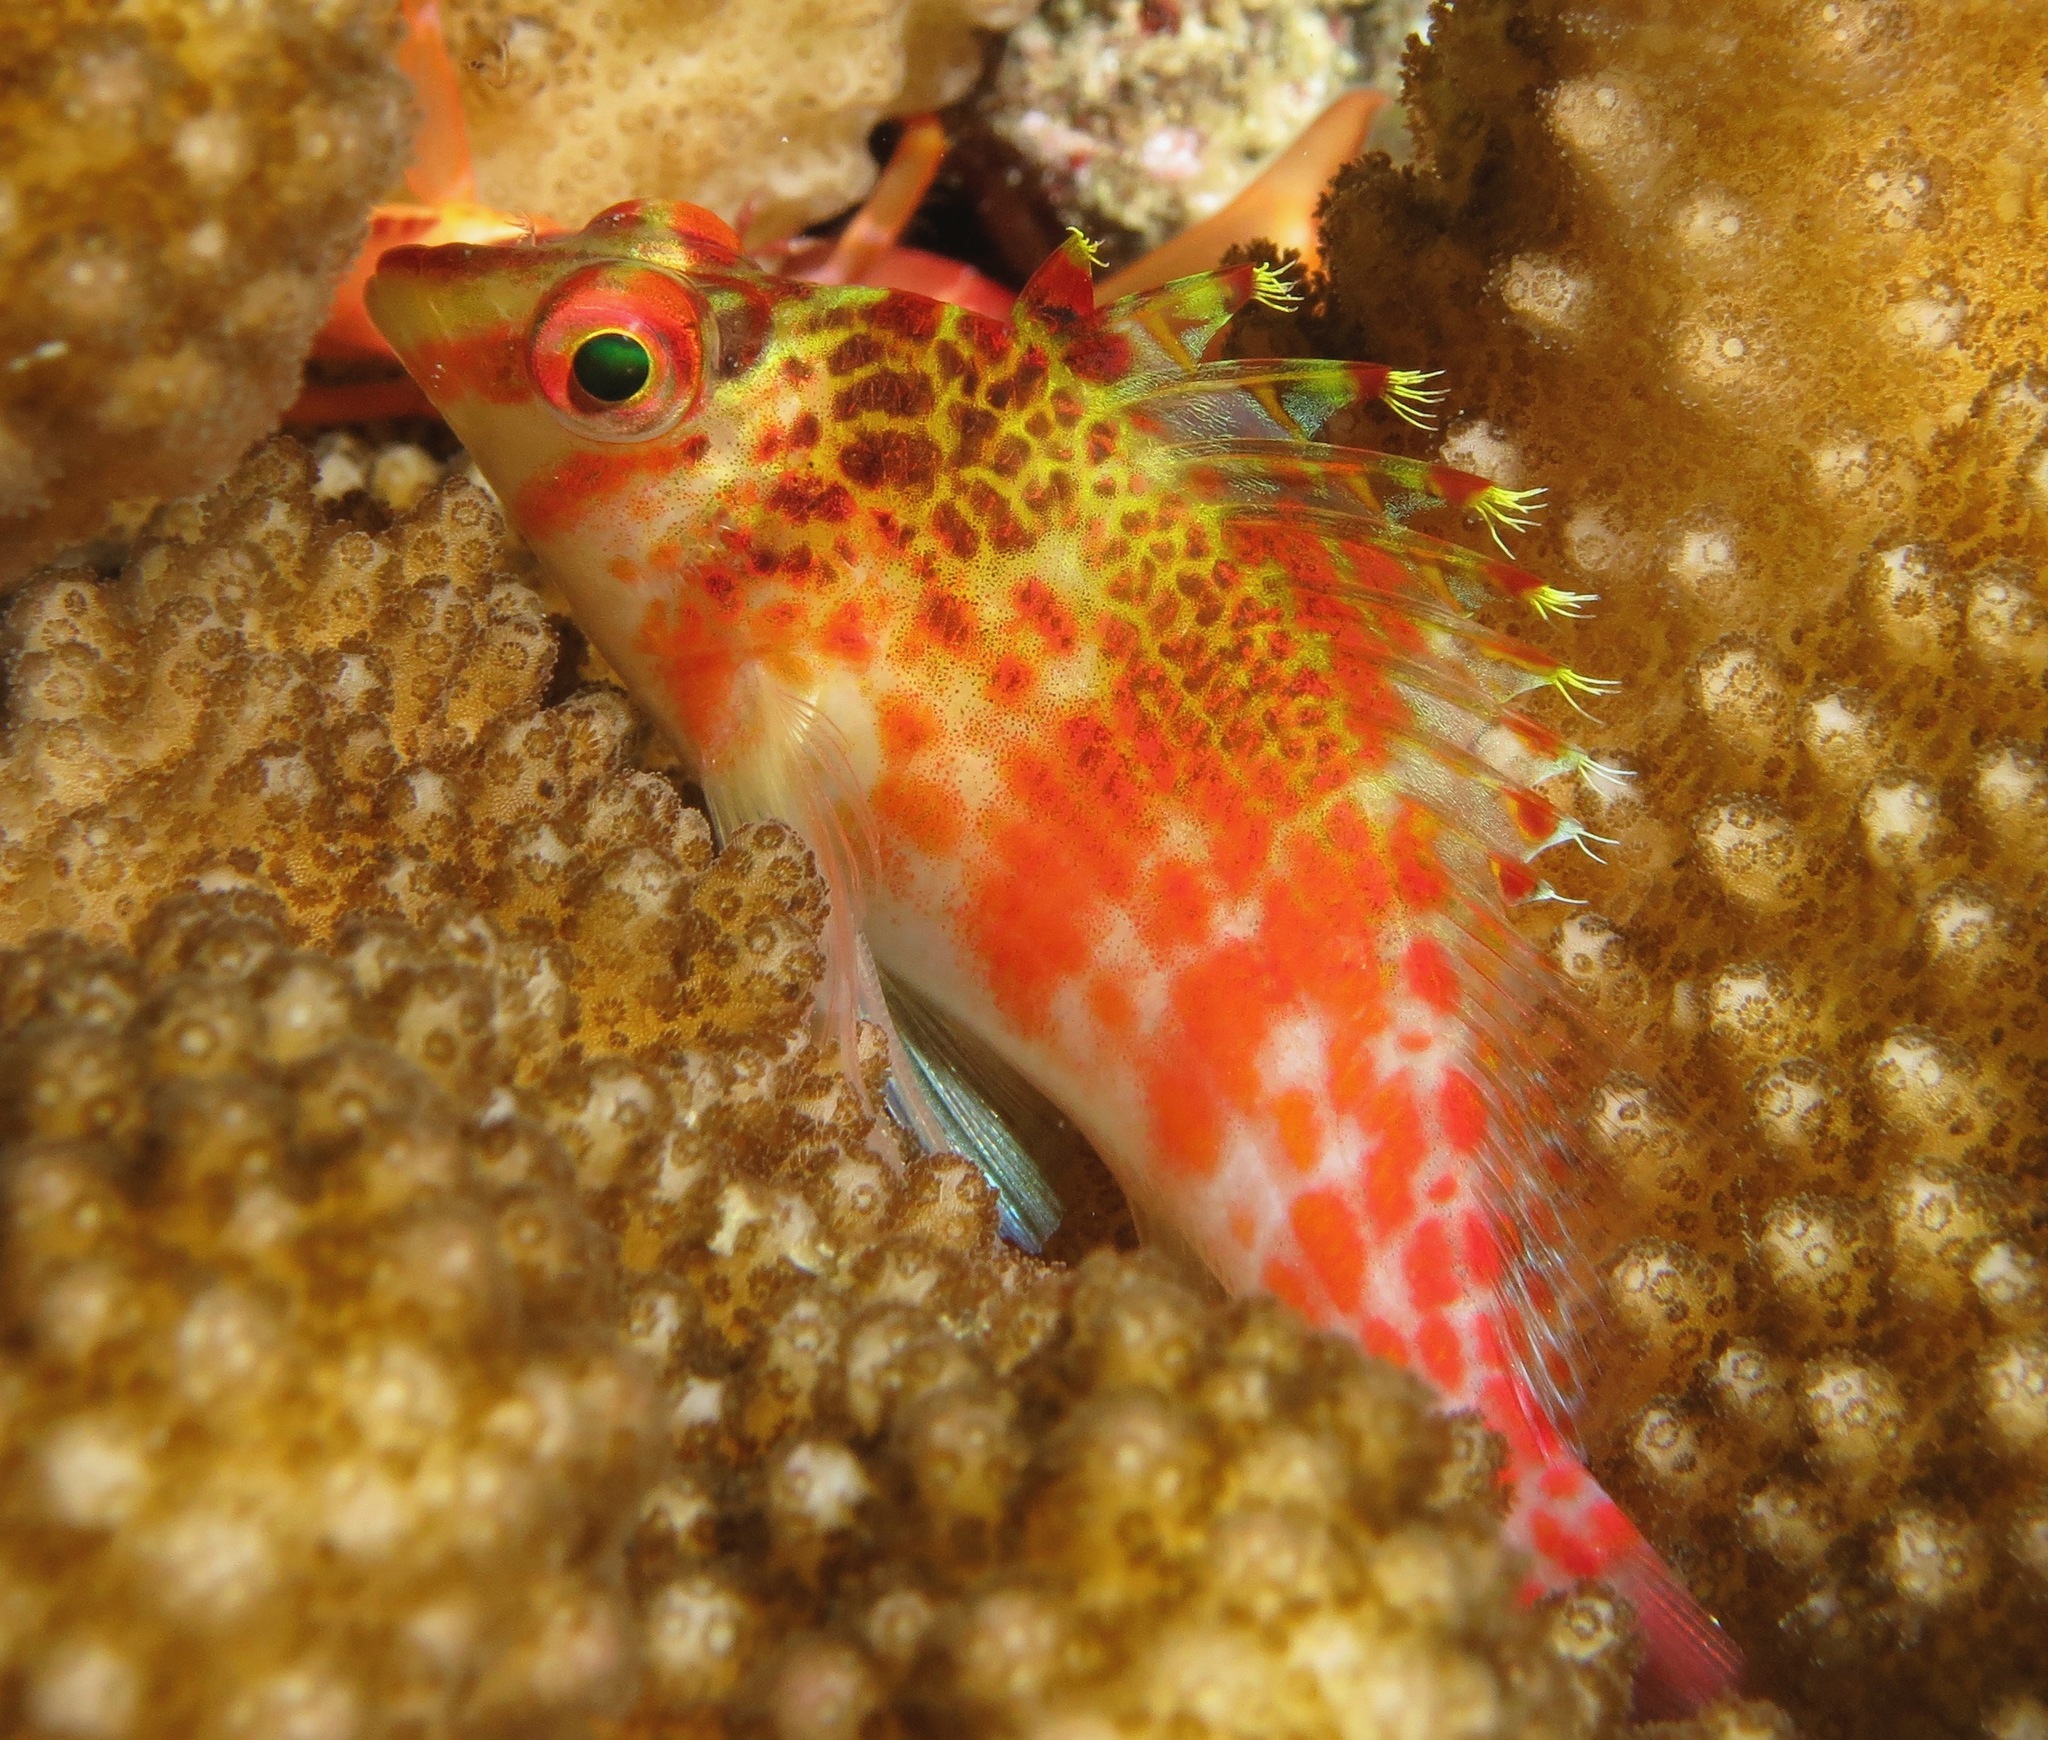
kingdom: Animalia
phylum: Chordata
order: Perciformes
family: Cirrhitidae
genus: Cirrhitichthys
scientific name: Cirrhitichthys falco
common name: Coral hawkfish
